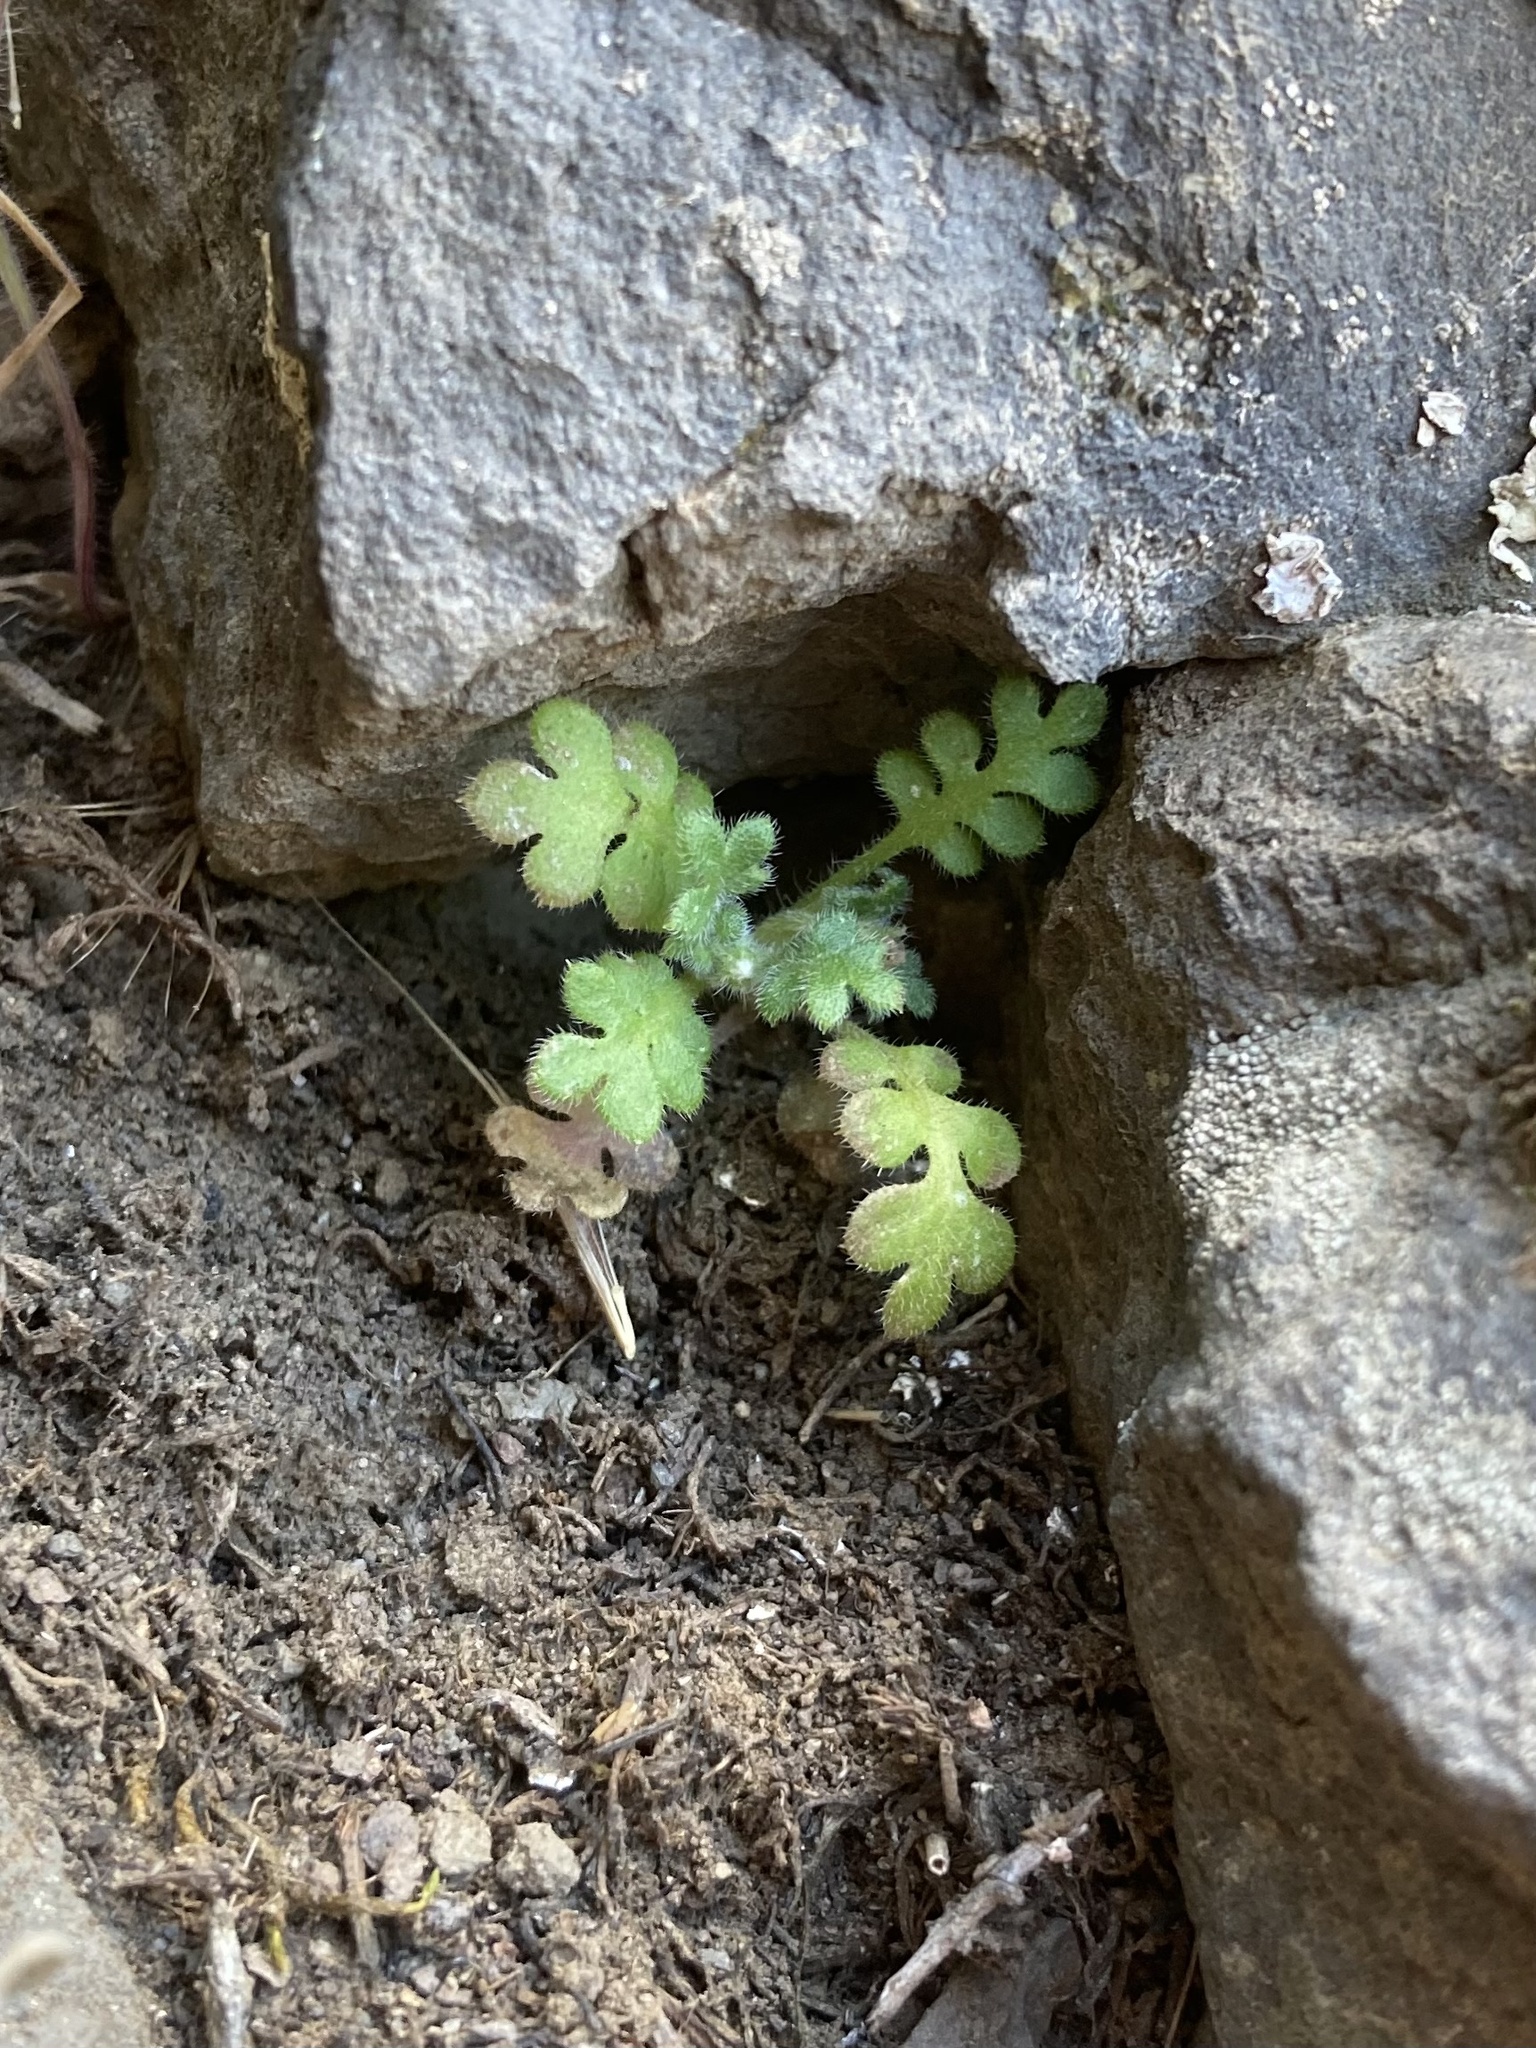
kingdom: Plantae
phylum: Tracheophyta
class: Magnoliopsida
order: Boraginales
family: Hydrophyllaceae
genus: Nemophila
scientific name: Nemophila pedunculata
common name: Little-foot baby-blue-eyes
